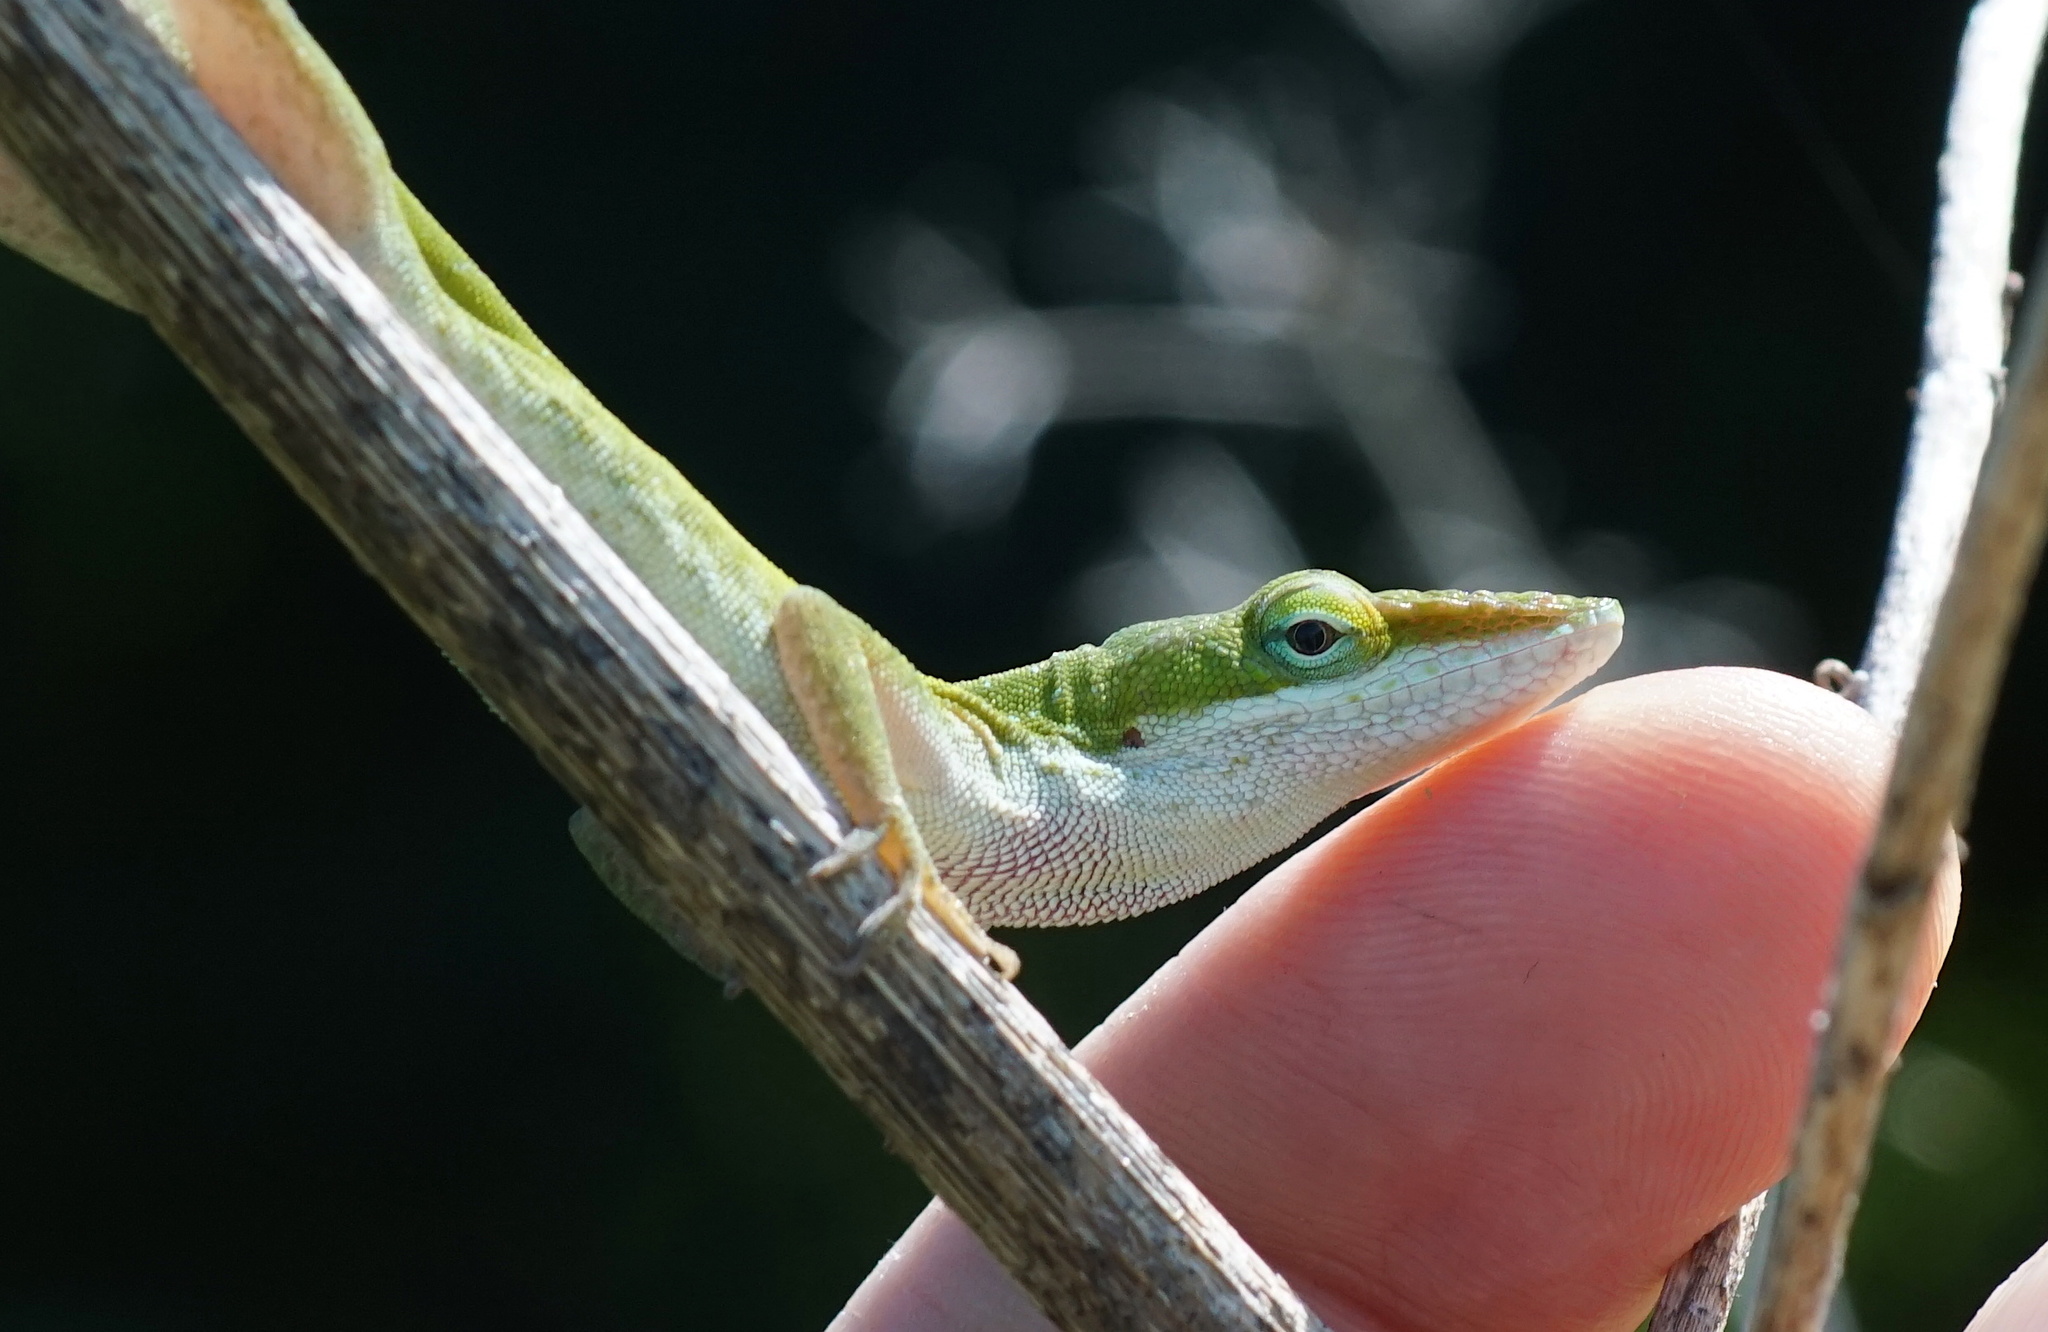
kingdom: Animalia
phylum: Chordata
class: Squamata
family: Dactyloidae
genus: Anolis
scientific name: Anolis carolinensis
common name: Green anole
